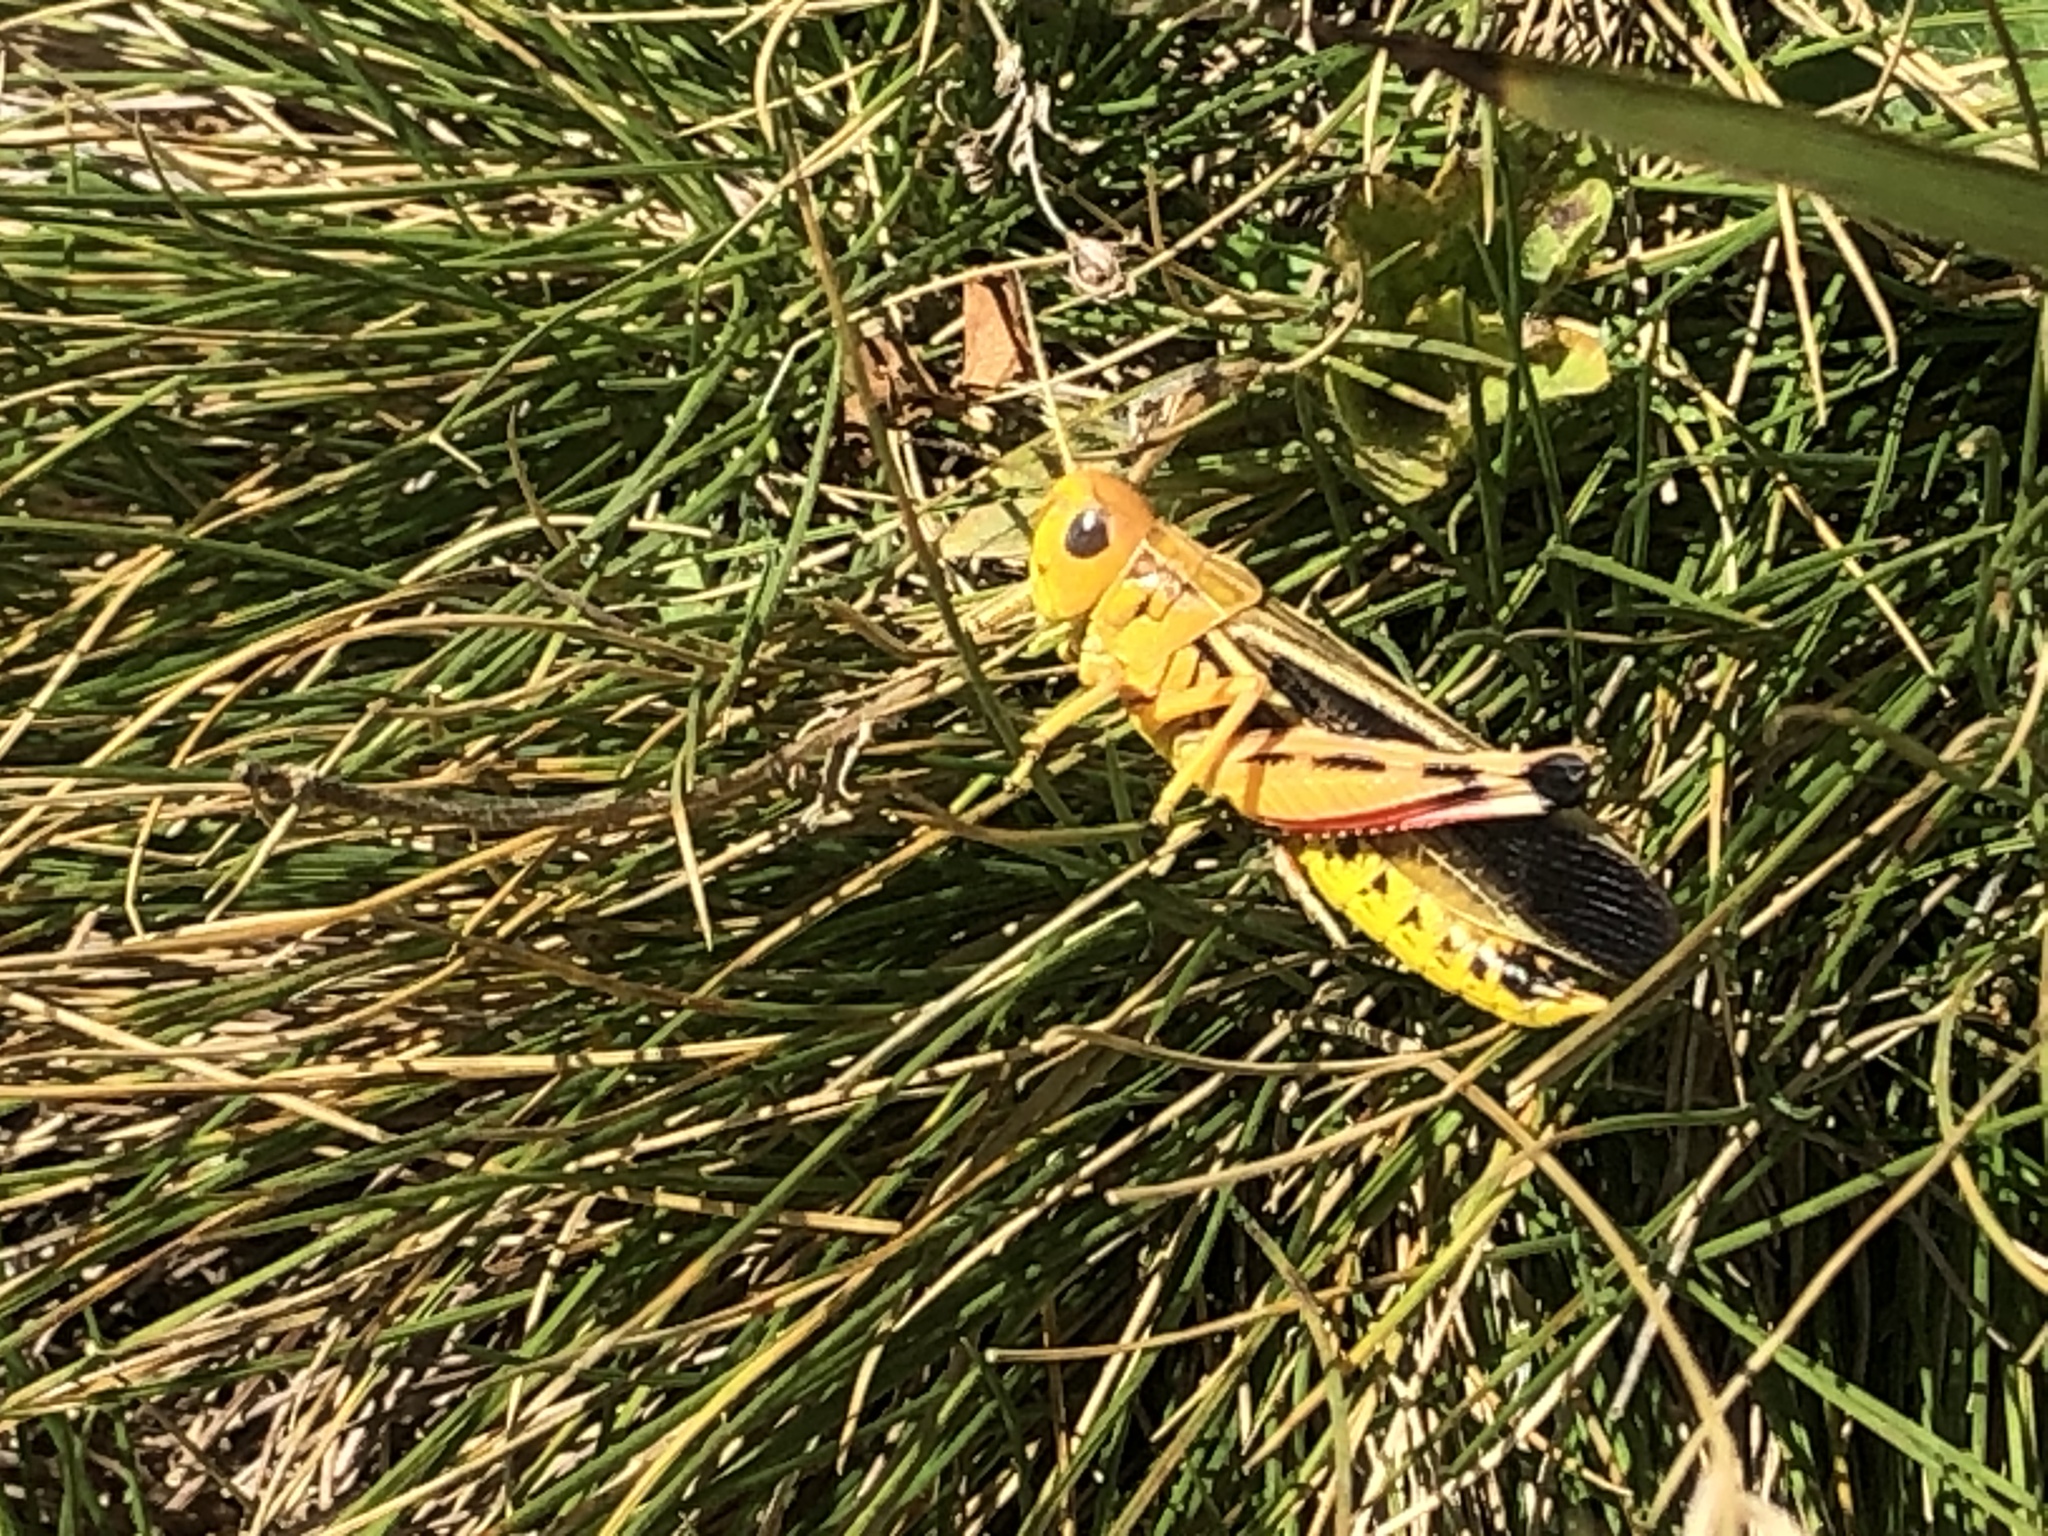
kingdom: Animalia
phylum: Arthropoda
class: Insecta
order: Orthoptera
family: Acrididae
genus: Arcyptera
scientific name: Arcyptera fusca
